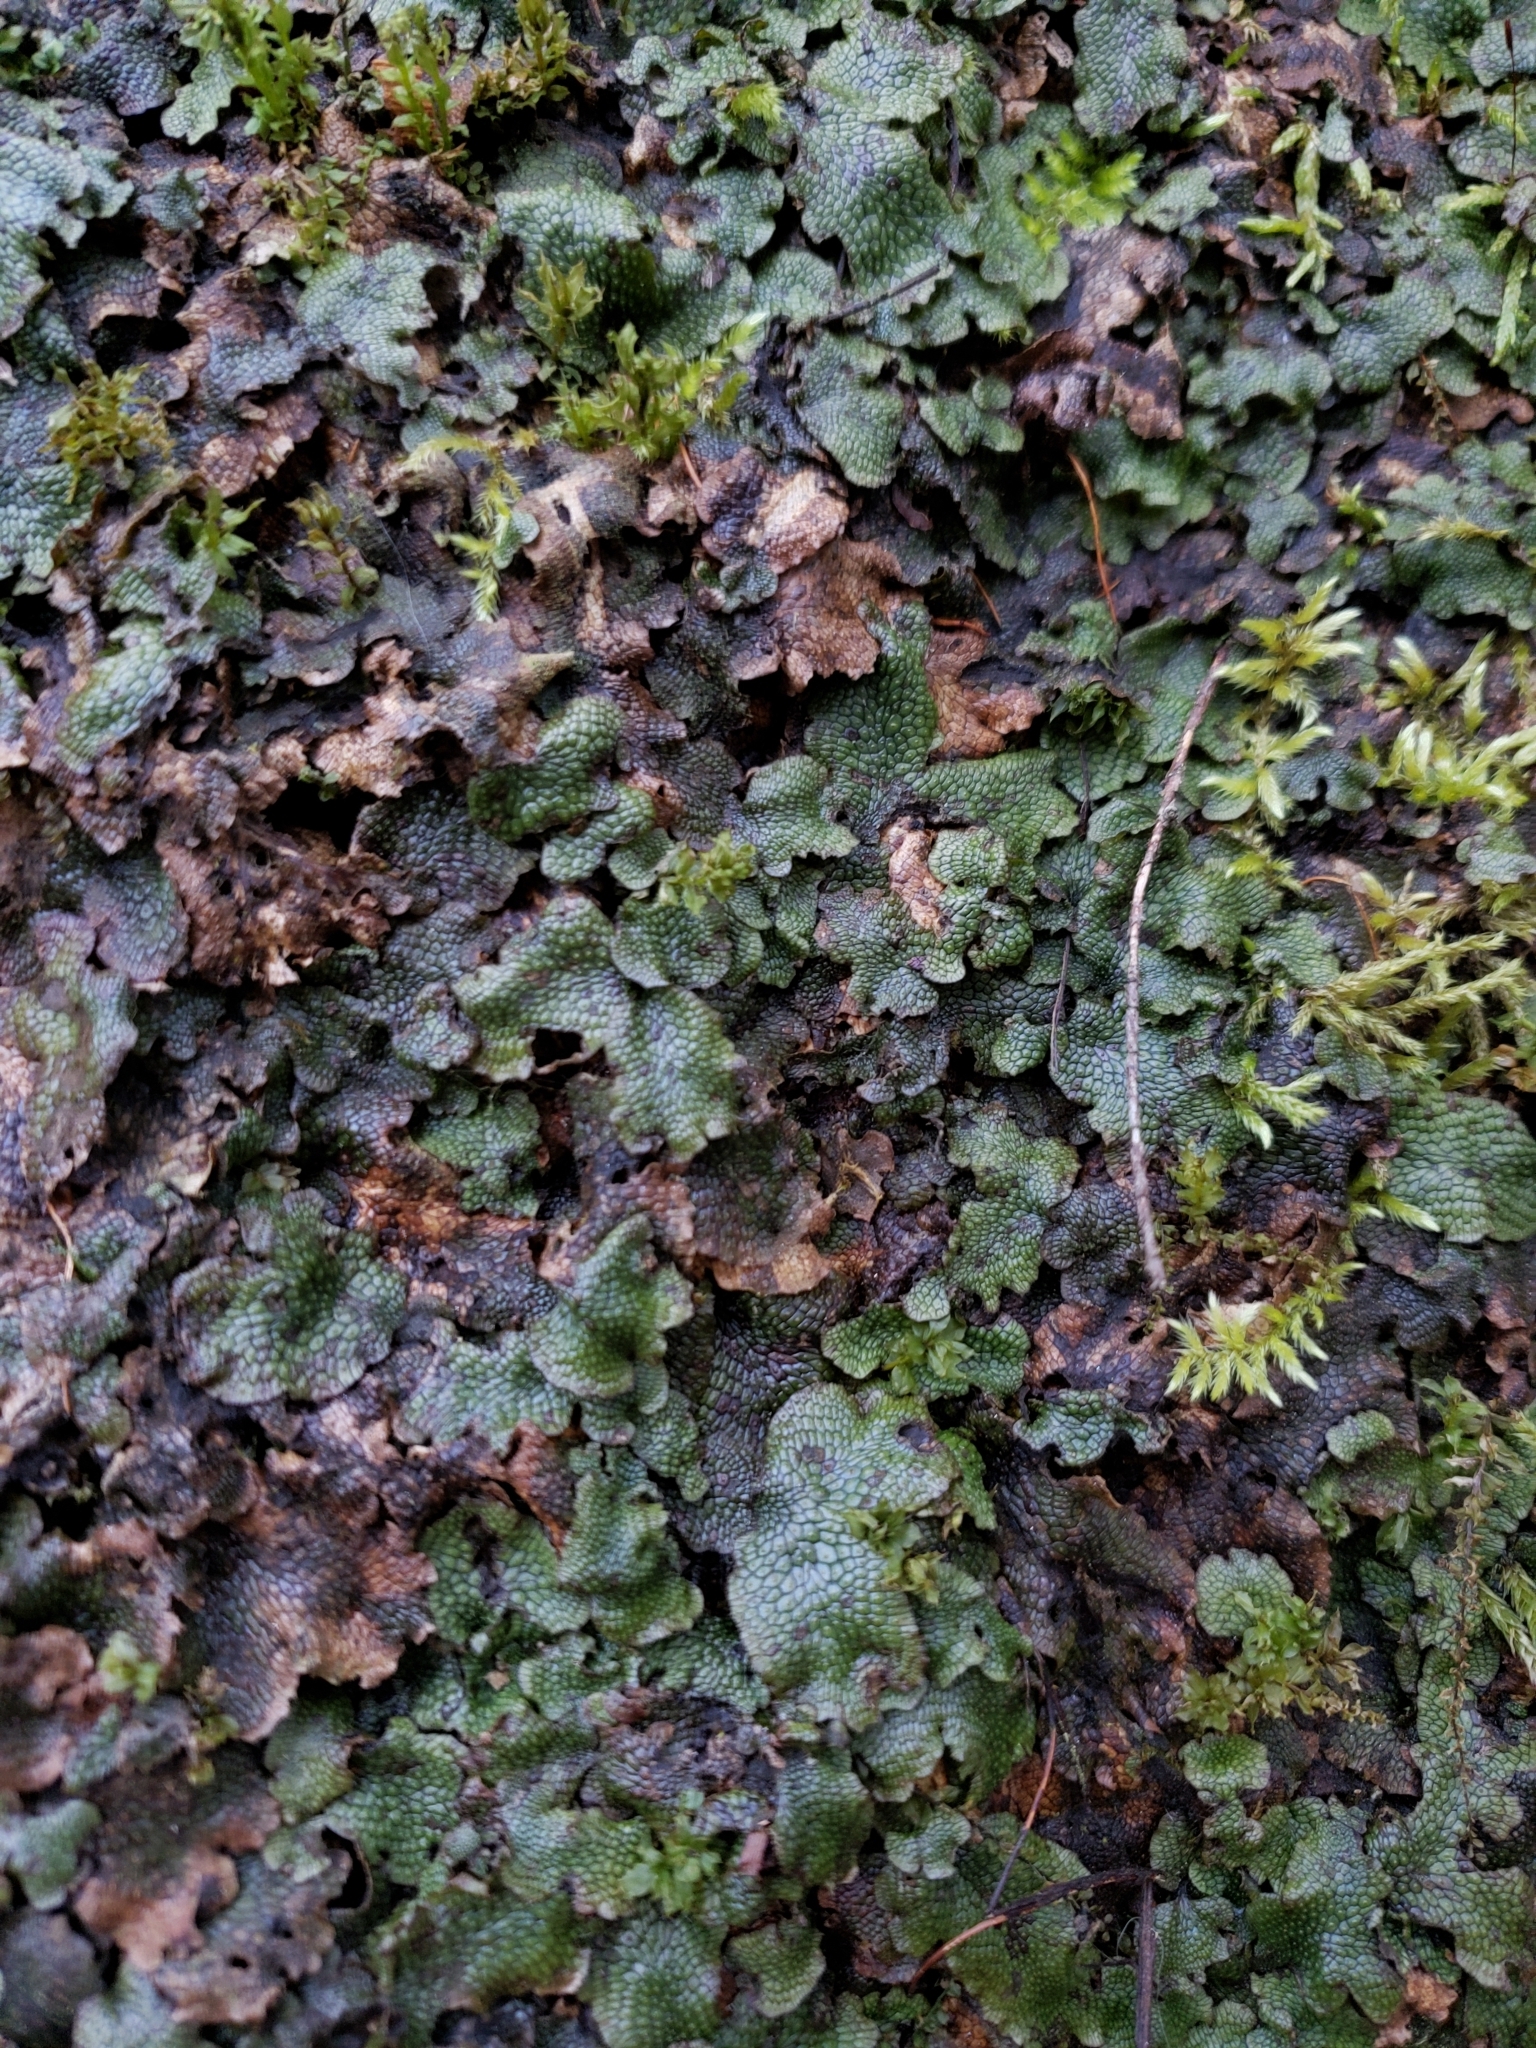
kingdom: Plantae
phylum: Marchantiophyta
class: Marchantiopsida
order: Marchantiales
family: Conocephalaceae
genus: Conocephalum
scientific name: Conocephalum salebrosum
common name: Cat-tongue liverwort
